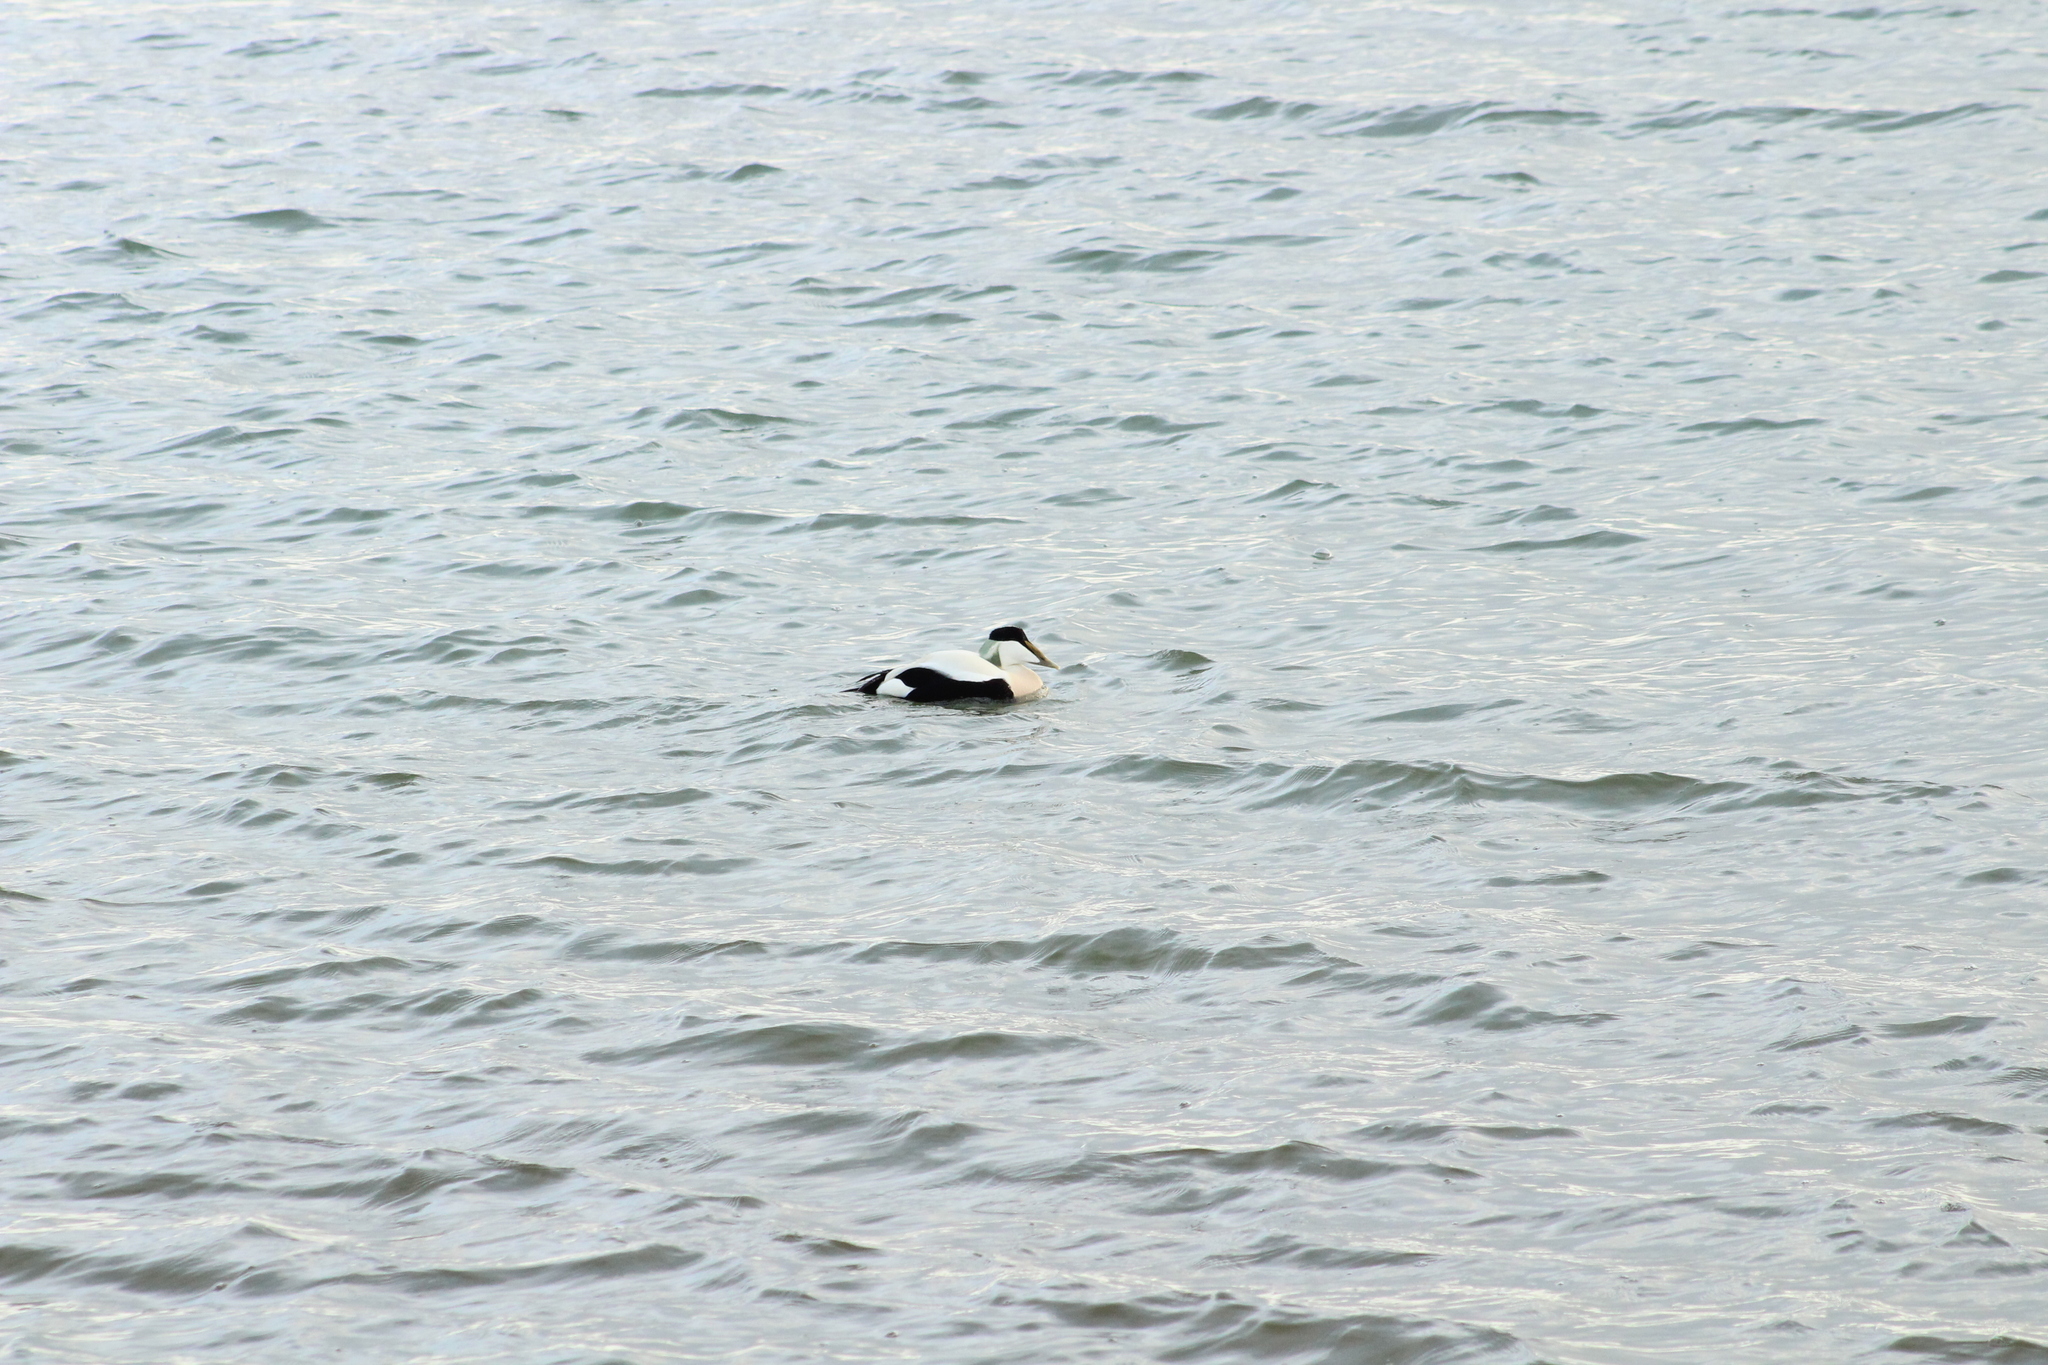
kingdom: Animalia
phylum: Chordata
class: Aves
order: Anseriformes
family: Anatidae
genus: Somateria
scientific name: Somateria mollissima
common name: Common eider
